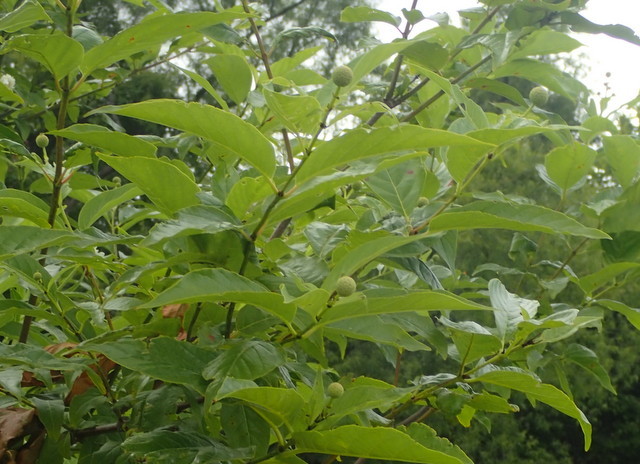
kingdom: Plantae
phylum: Tracheophyta
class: Magnoliopsida
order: Gentianales
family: Rubiaceae
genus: Cephalanthus
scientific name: Cephalanthus occidentalis
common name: Button-willow
